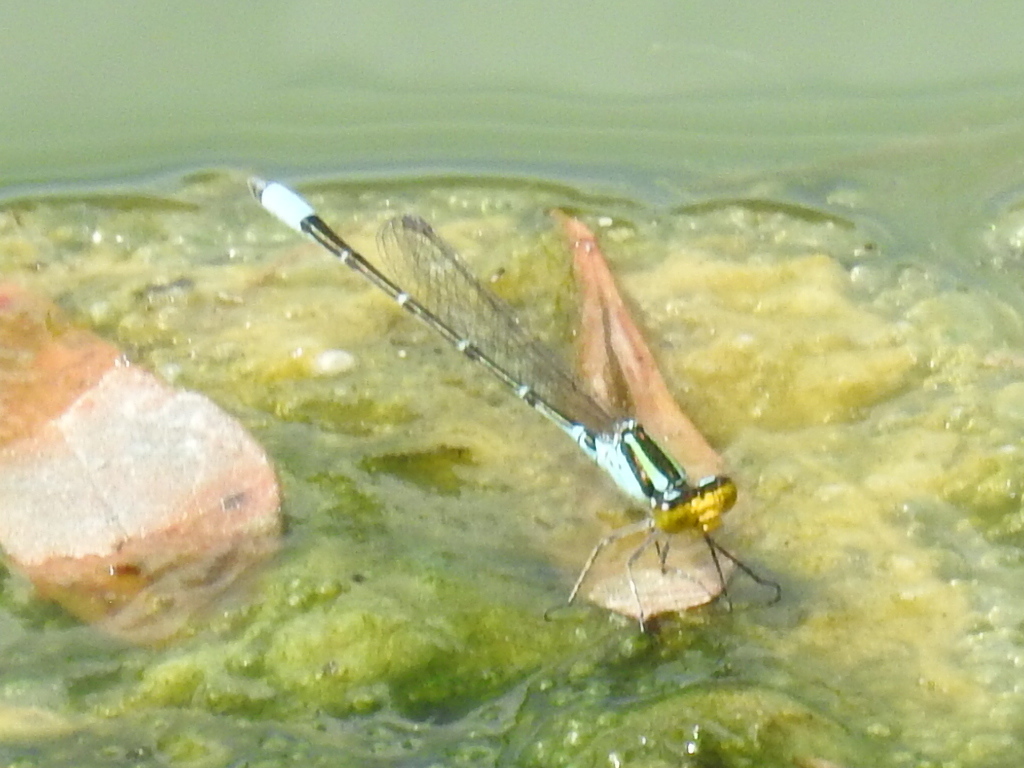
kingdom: Animalia
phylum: Arthropoda
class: Insecta
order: Odonata
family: Coenagrionidae
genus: Neoerythromma
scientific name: Neoerythromma cultellatum
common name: Caribbean yellowface
